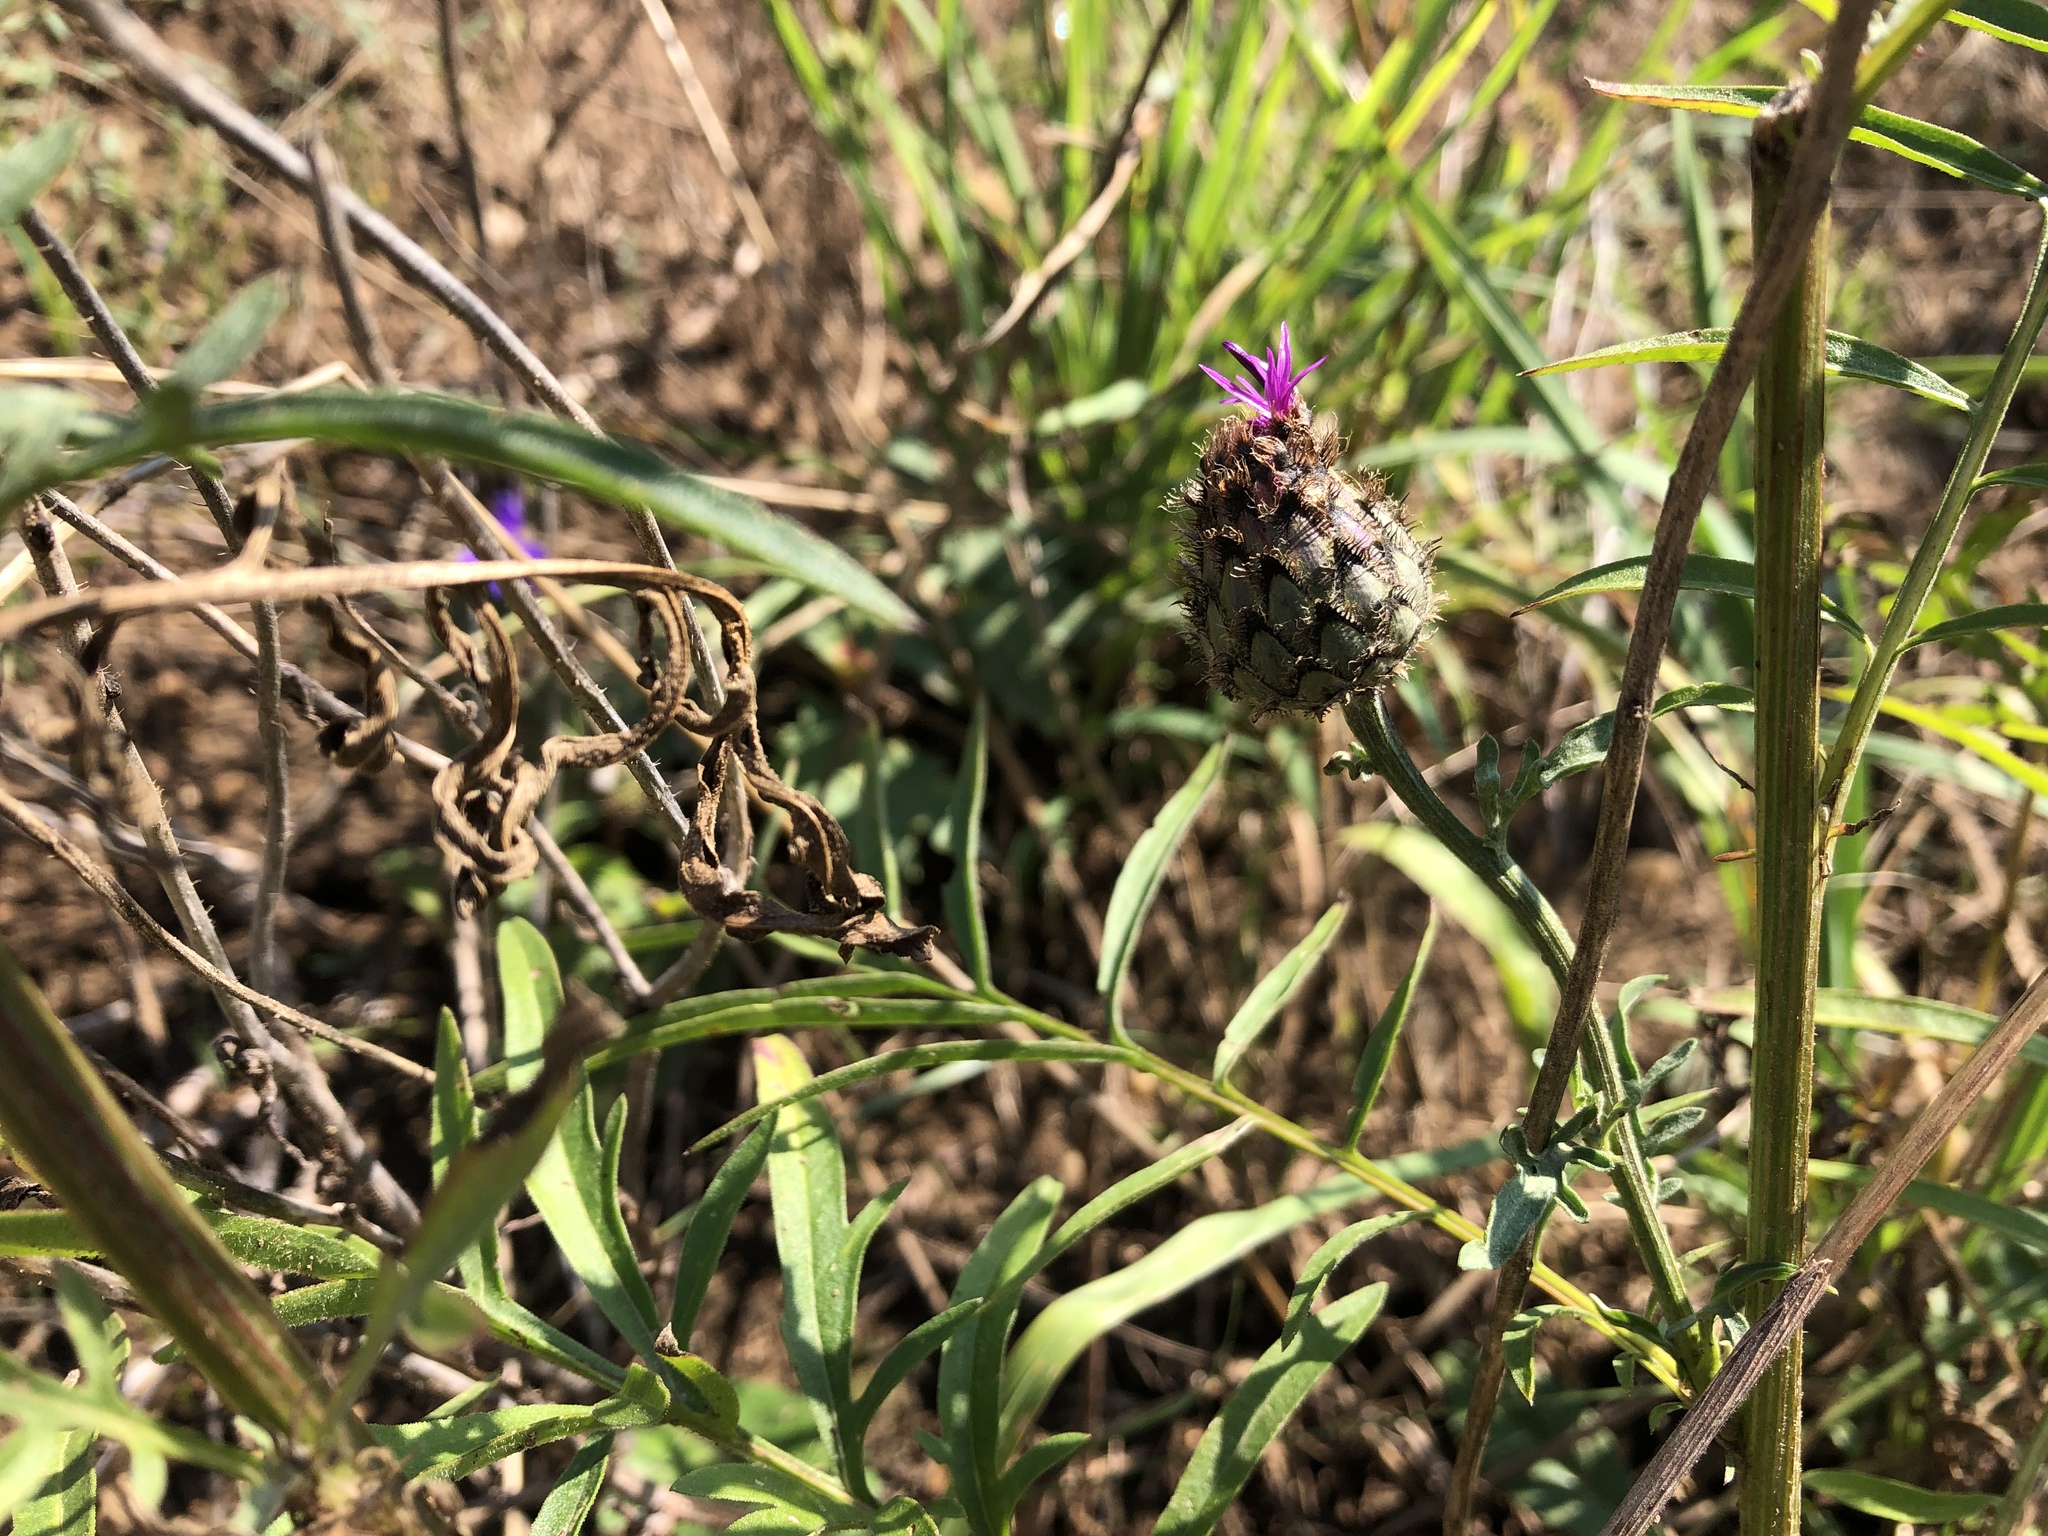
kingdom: Plantae
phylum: Tracheophyta
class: Magnoliopsida
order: Asterales
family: Asteraceae
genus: Centaurea
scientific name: Centaurea scabiosa
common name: Greater knapweed
